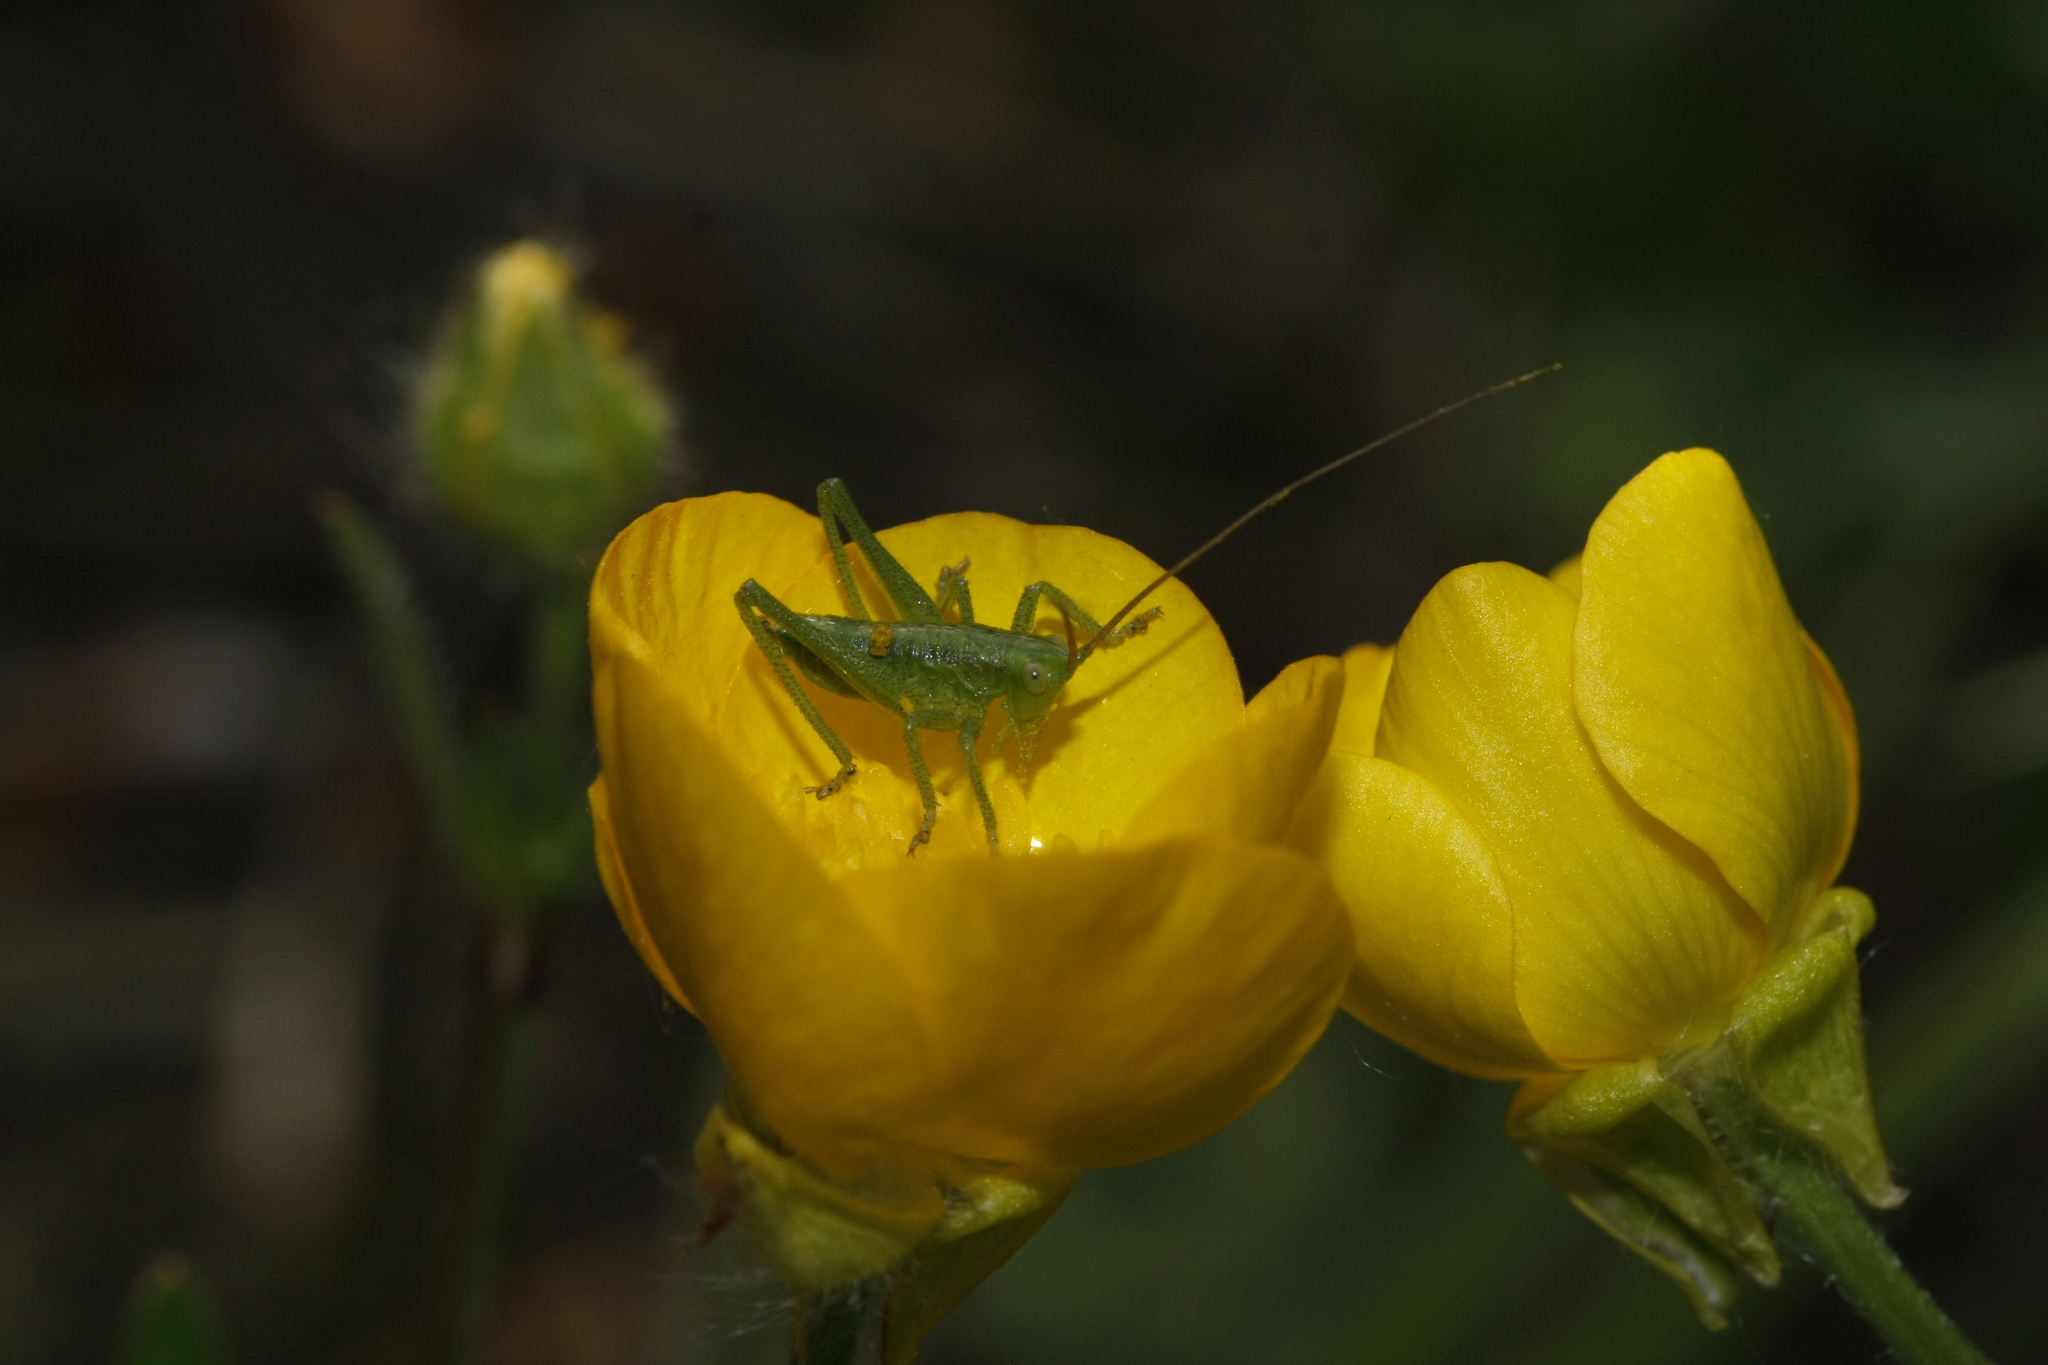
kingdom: Animalia
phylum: Arthropoda
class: Insecta
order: Orthoptera
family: Tettigoniidae
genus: Tettigonia
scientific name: Tettigonia viridissima
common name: Great green bush-cricket
